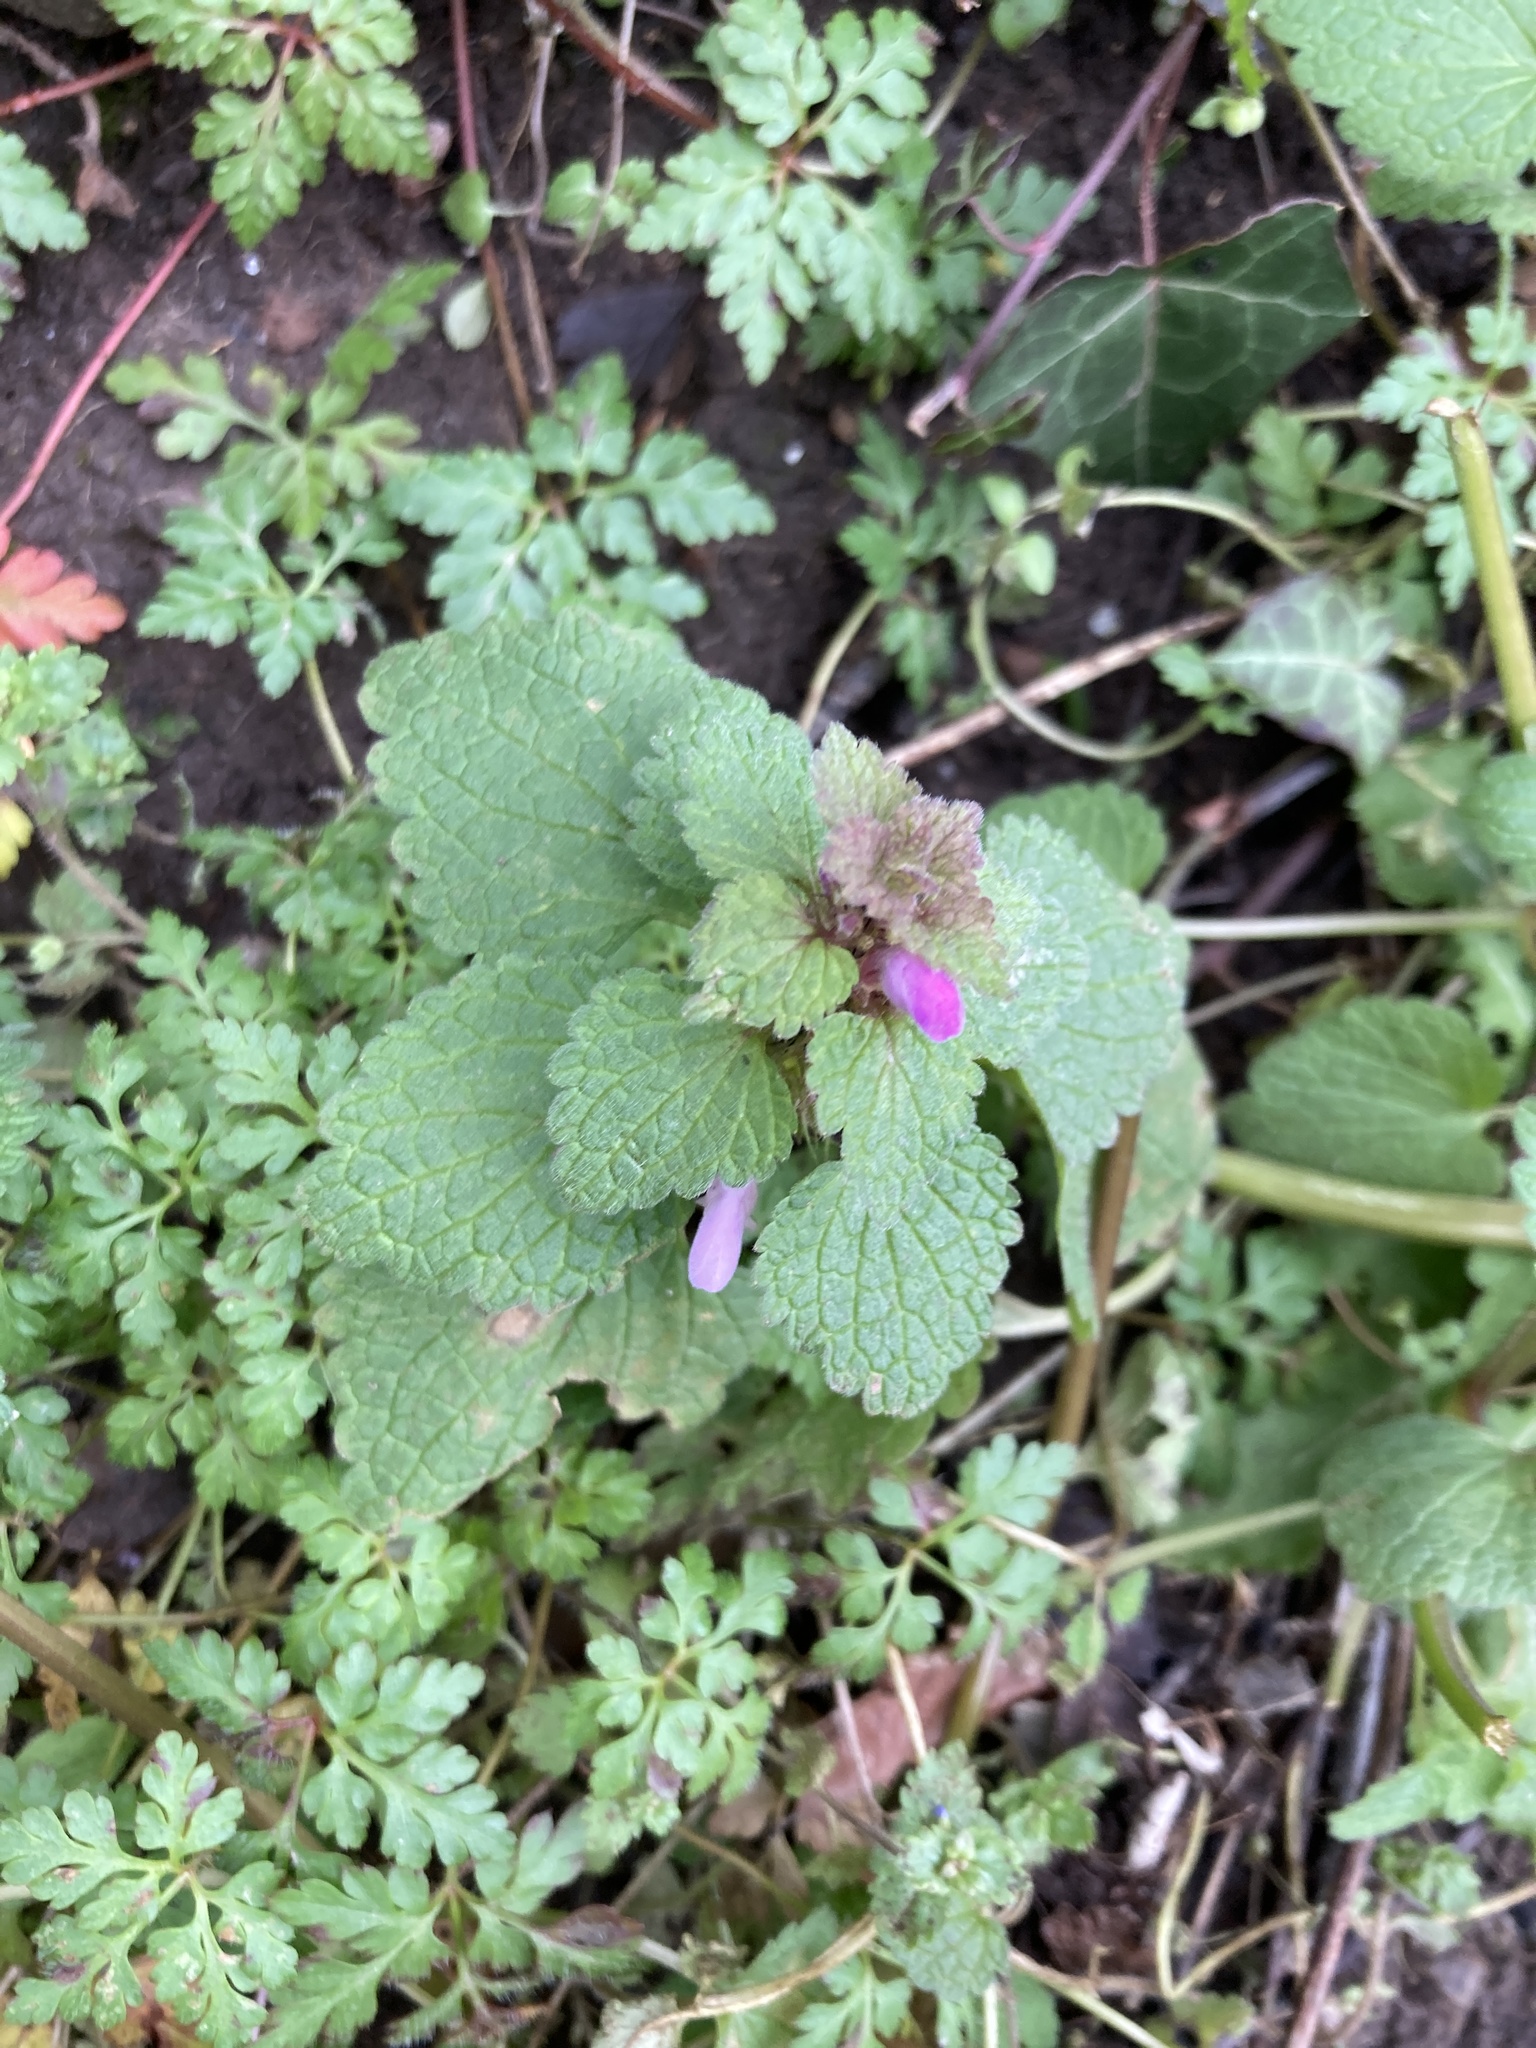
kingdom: Plantae
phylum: Tracheophyta
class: Magnoliopsida
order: Lamiales
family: Lamiaceae
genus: Lamium
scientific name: Lamium purpureum
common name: Red dead-nettle
